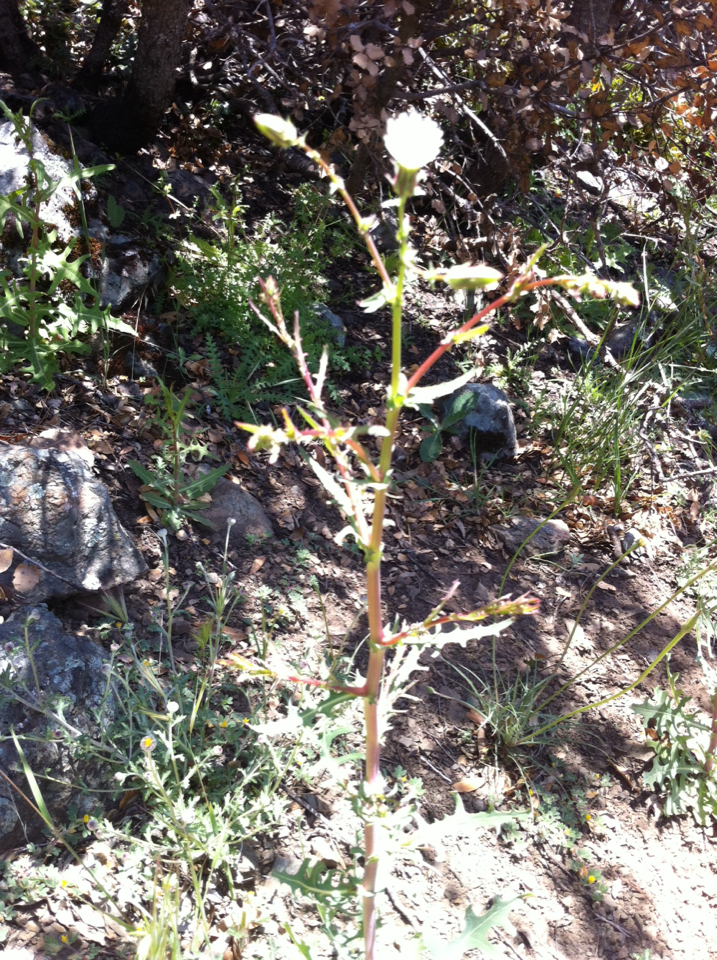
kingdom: Plantae
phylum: Tracheophyta
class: Magnoliopsida
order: Asterales
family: Asteraceae
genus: Rafinesquia
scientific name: Rafinesquia californica
